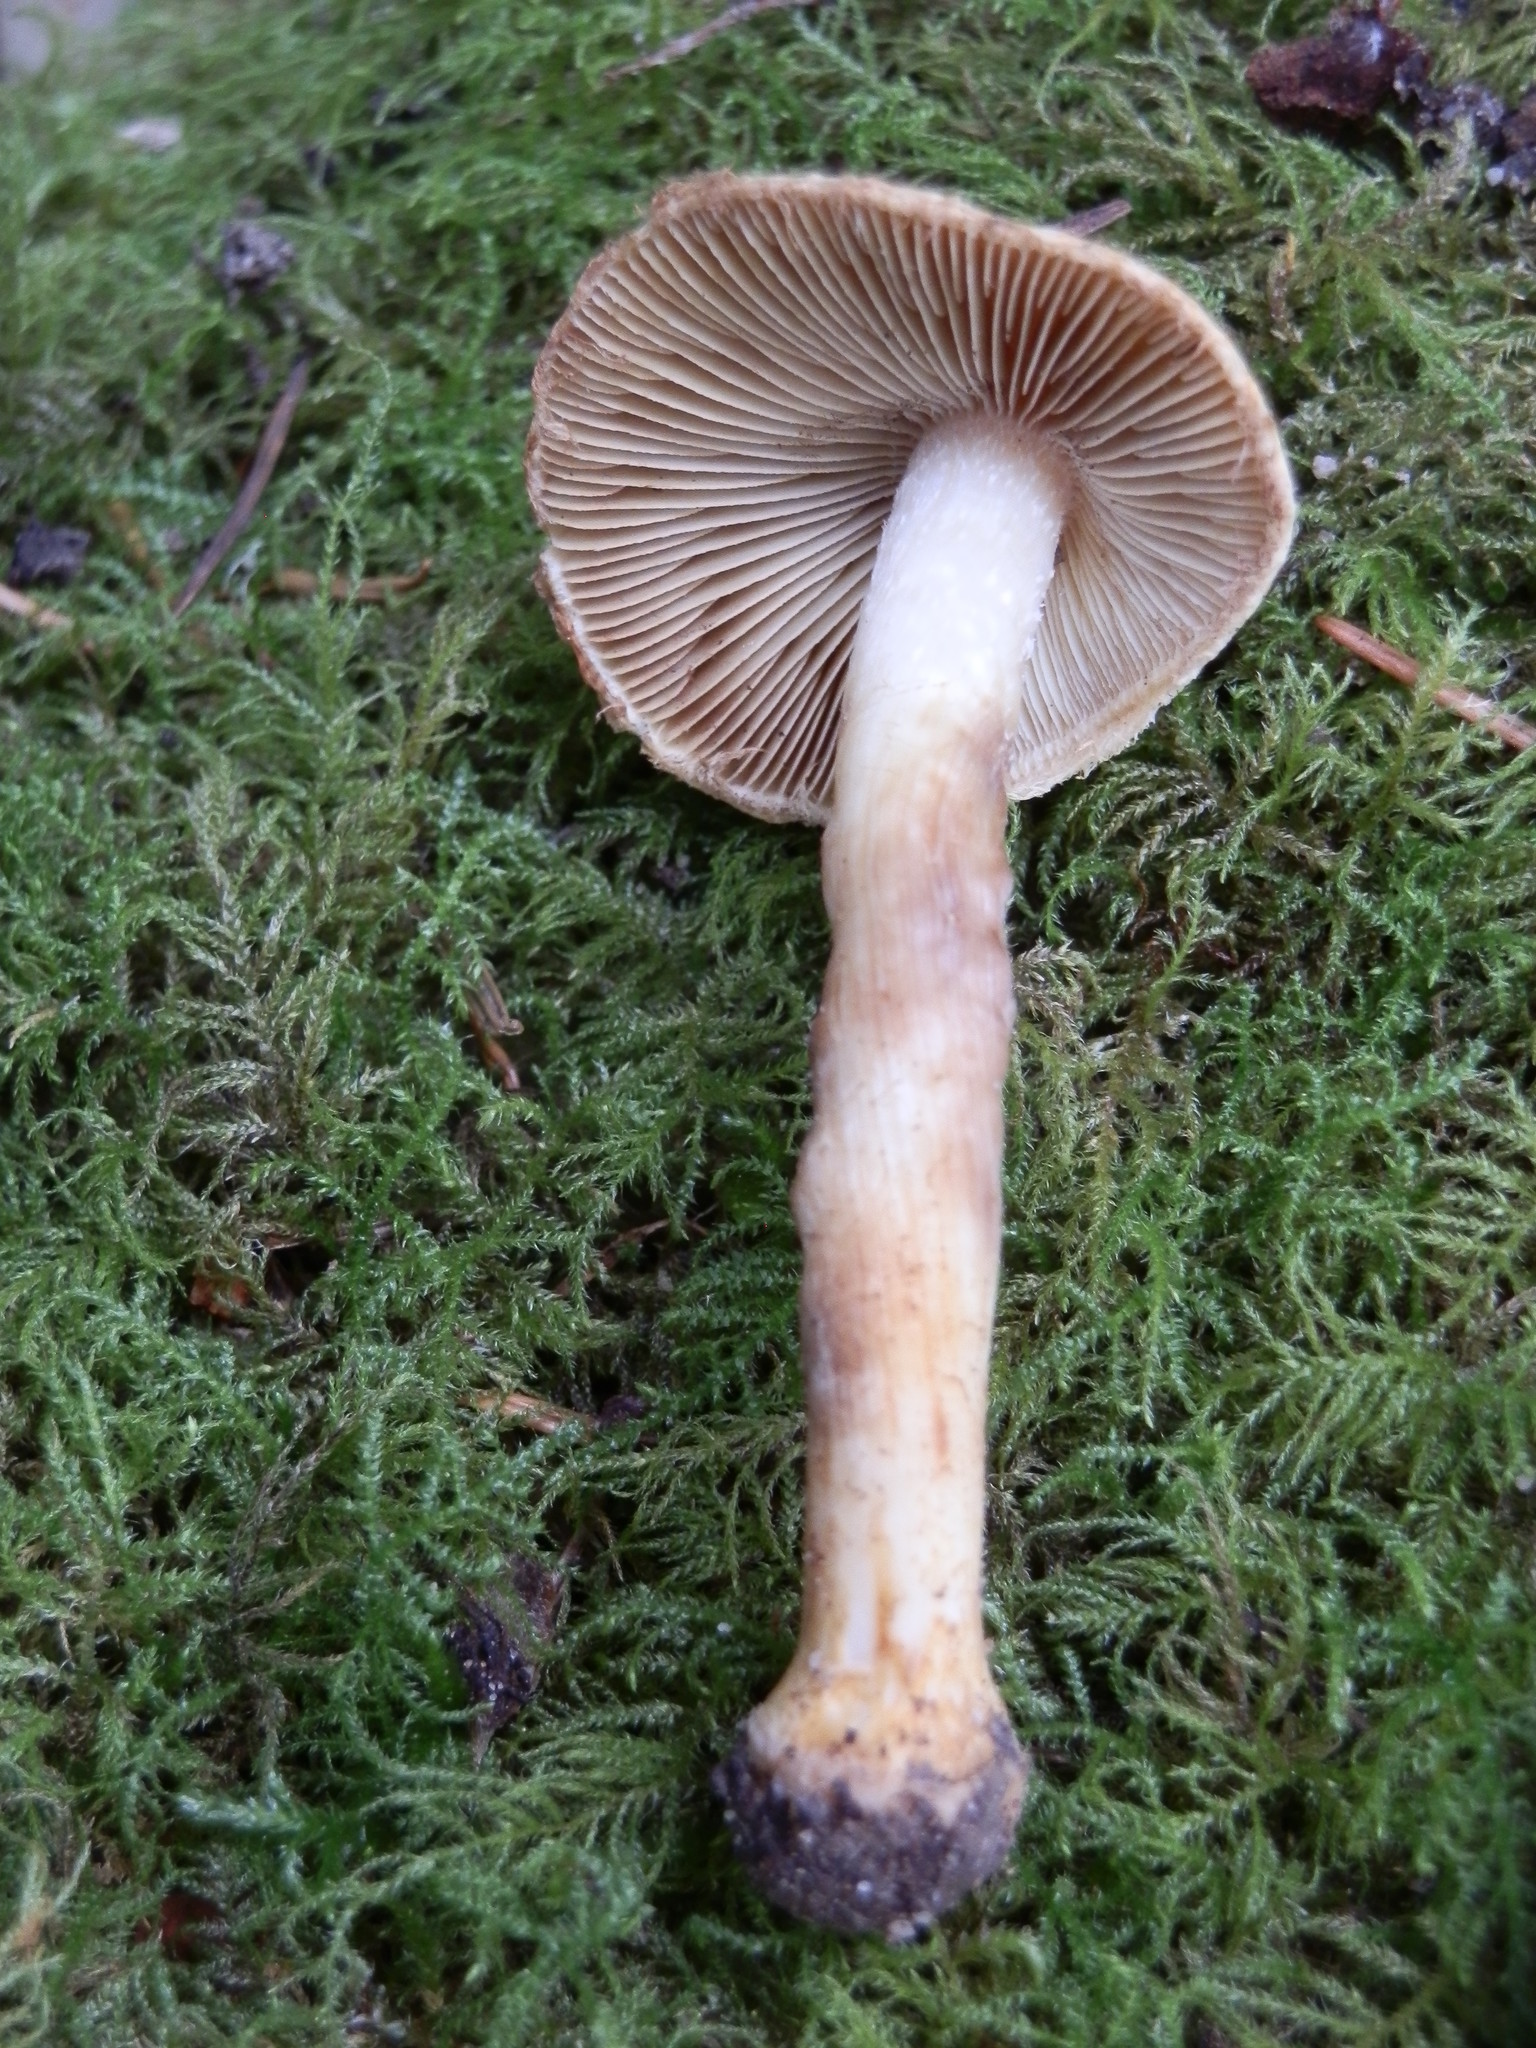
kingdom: Fungi
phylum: Basidiomycota
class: Agaricomycetes
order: Agaricales
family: Inocybaceae
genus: Inocybe
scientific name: Inocybe assimilata
